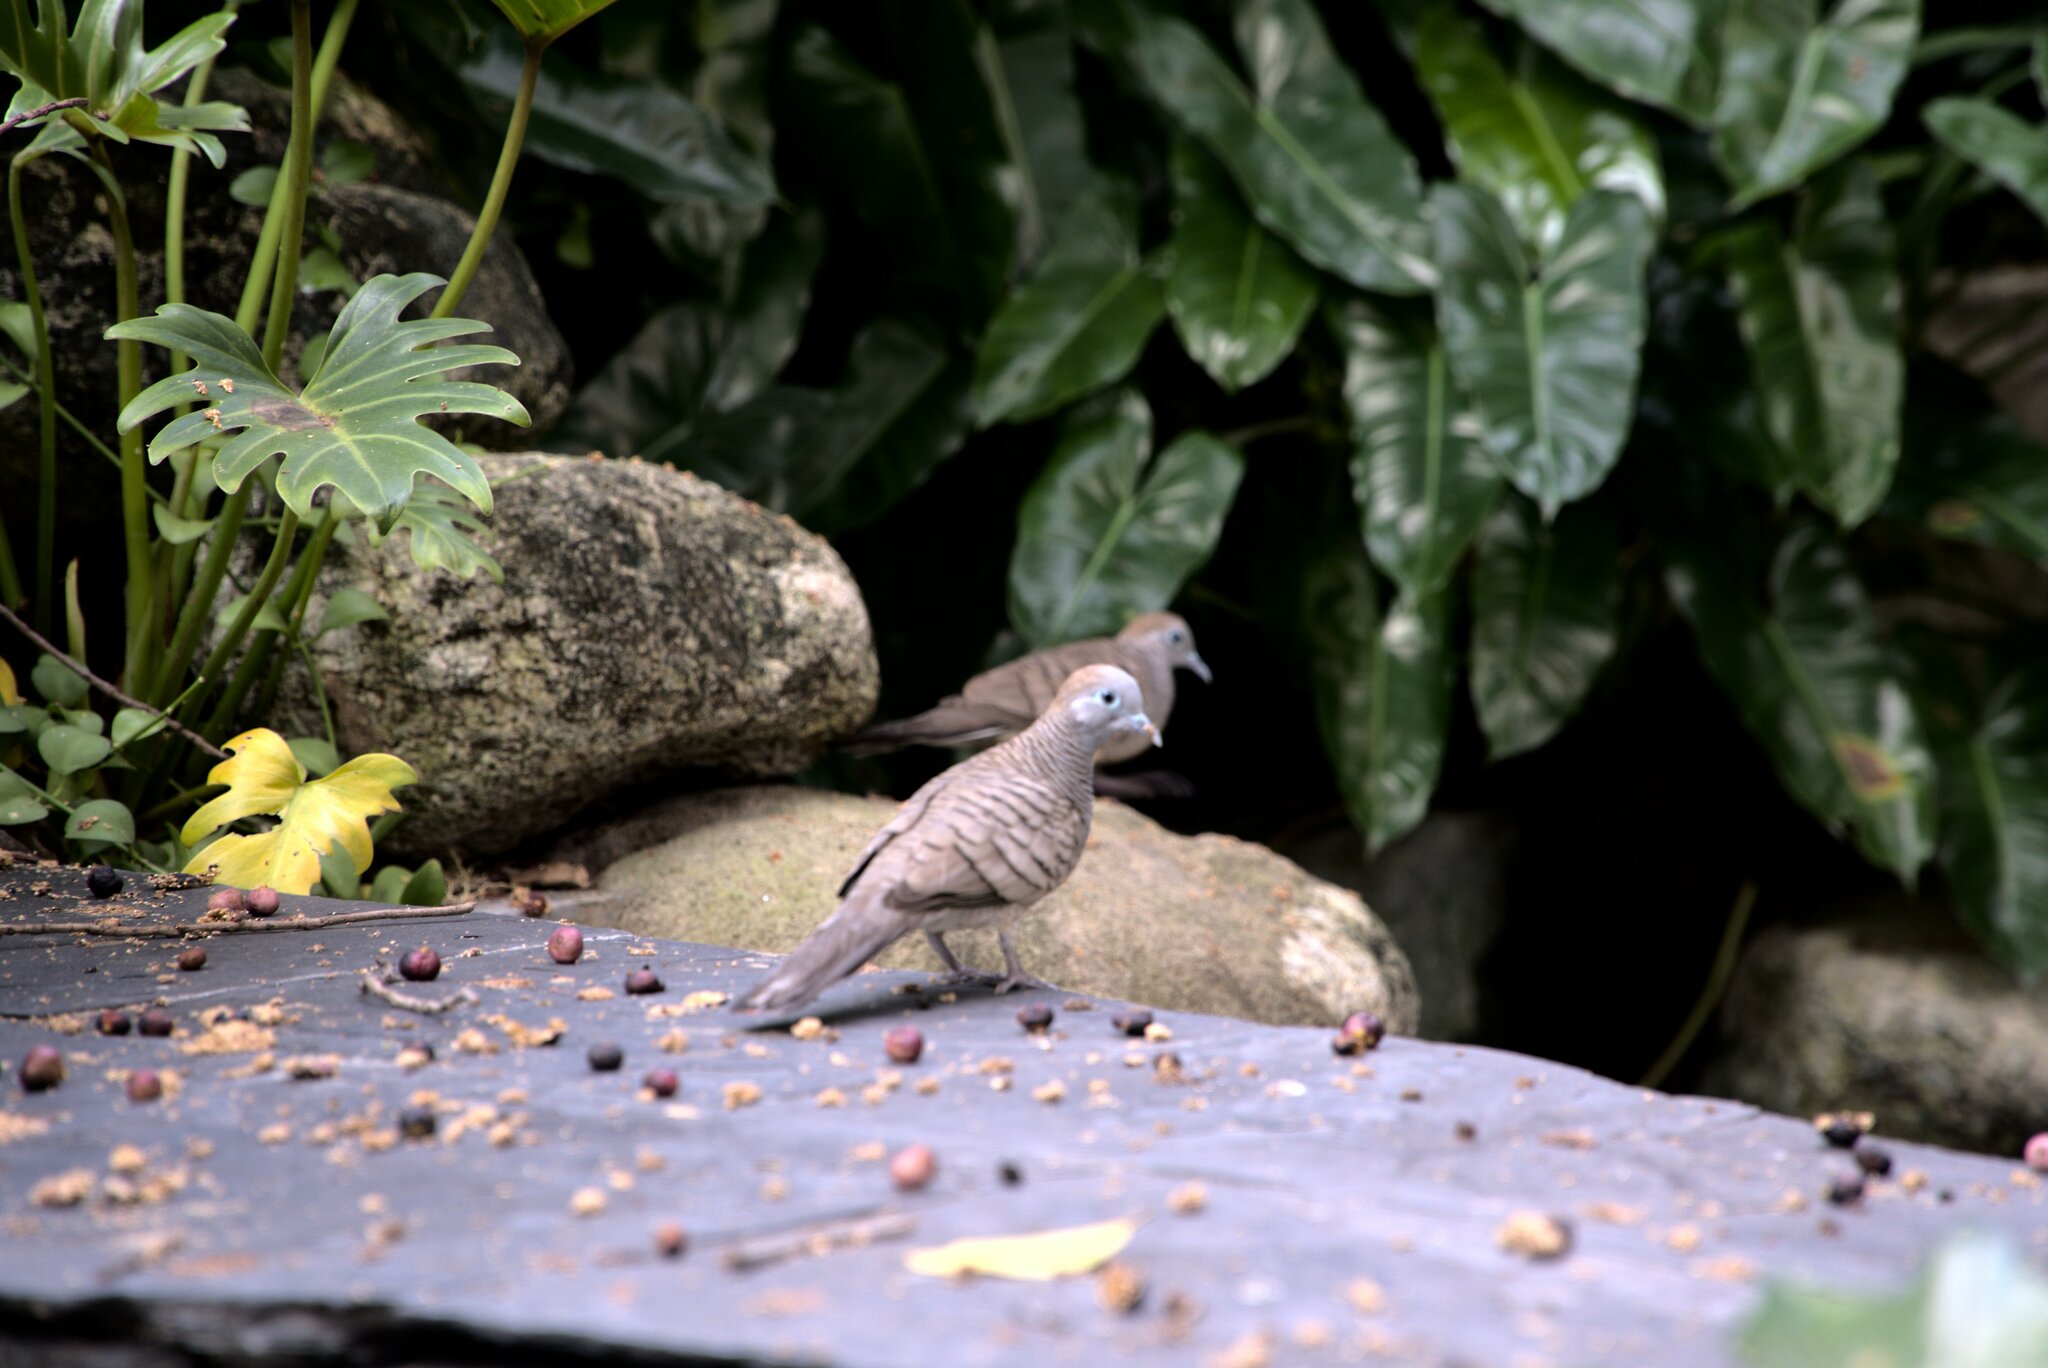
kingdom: Animalia
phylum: Chordata
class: Aves
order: Columbiformes
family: Columbidae
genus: Geopelia
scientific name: Geopelia striata
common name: Zebra dove
